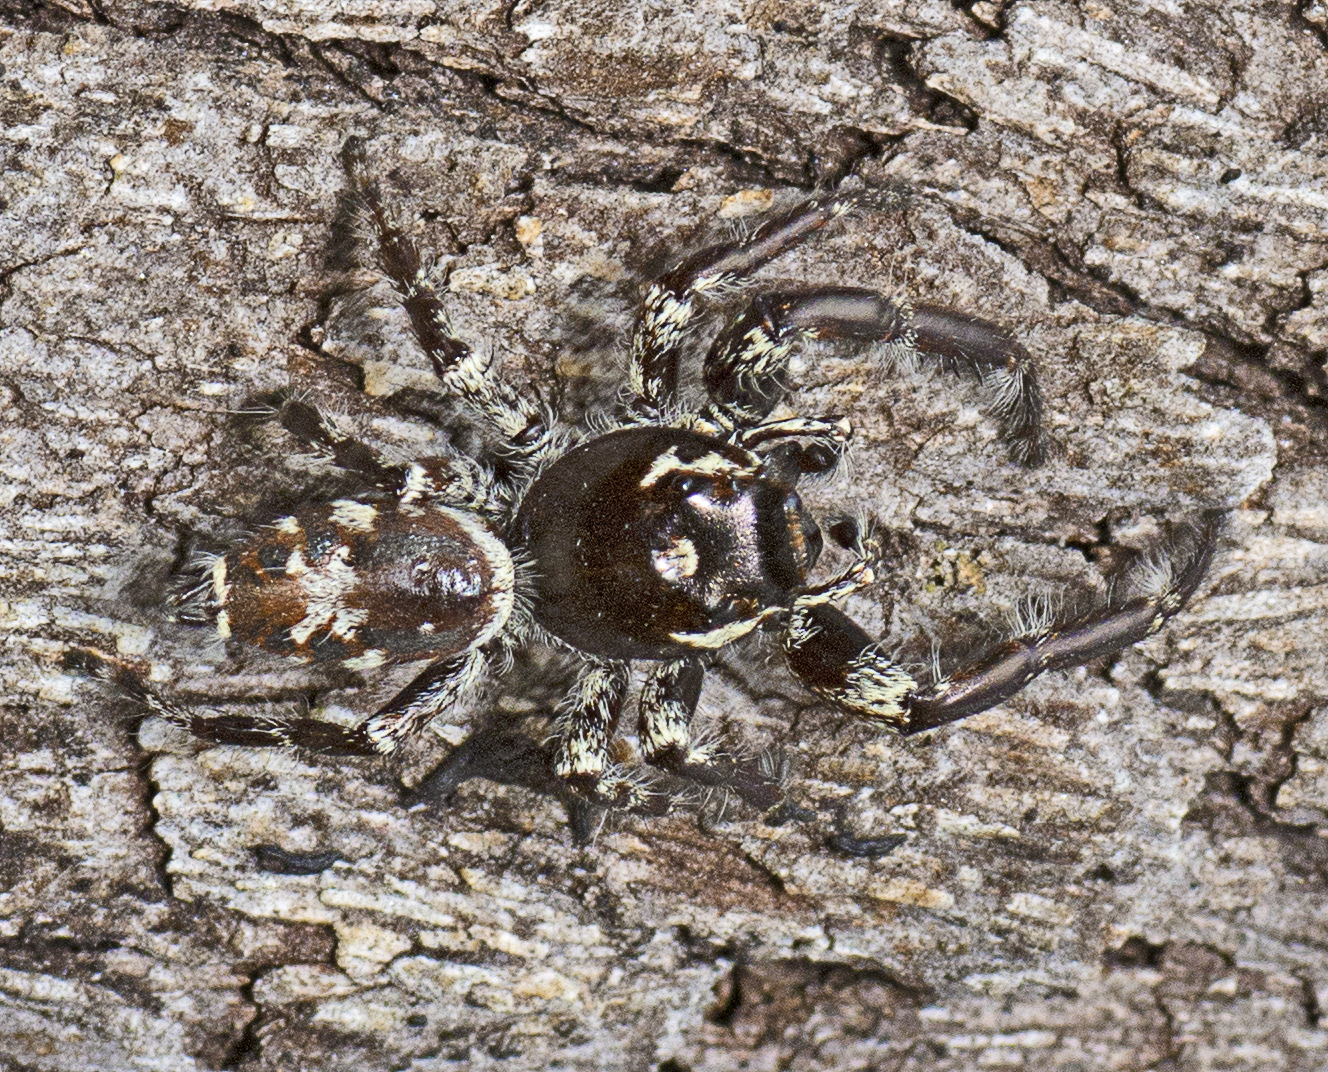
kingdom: Animalia
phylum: Arthropoda
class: Arachnida
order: Araneae
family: Salticidae
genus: Sandalodes
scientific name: Sandalodes superbus
